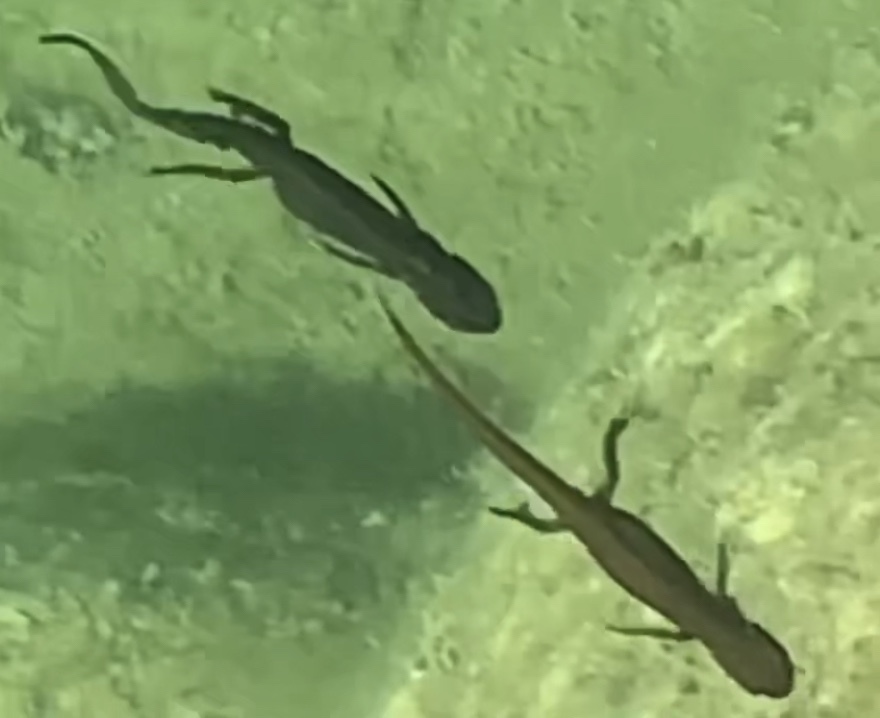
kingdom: Animalia
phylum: Chordata
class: Amphibia
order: Caudata
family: Salamandridae
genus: Lissotriton
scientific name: Lissotriton vulgaris
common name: Smooth newt
